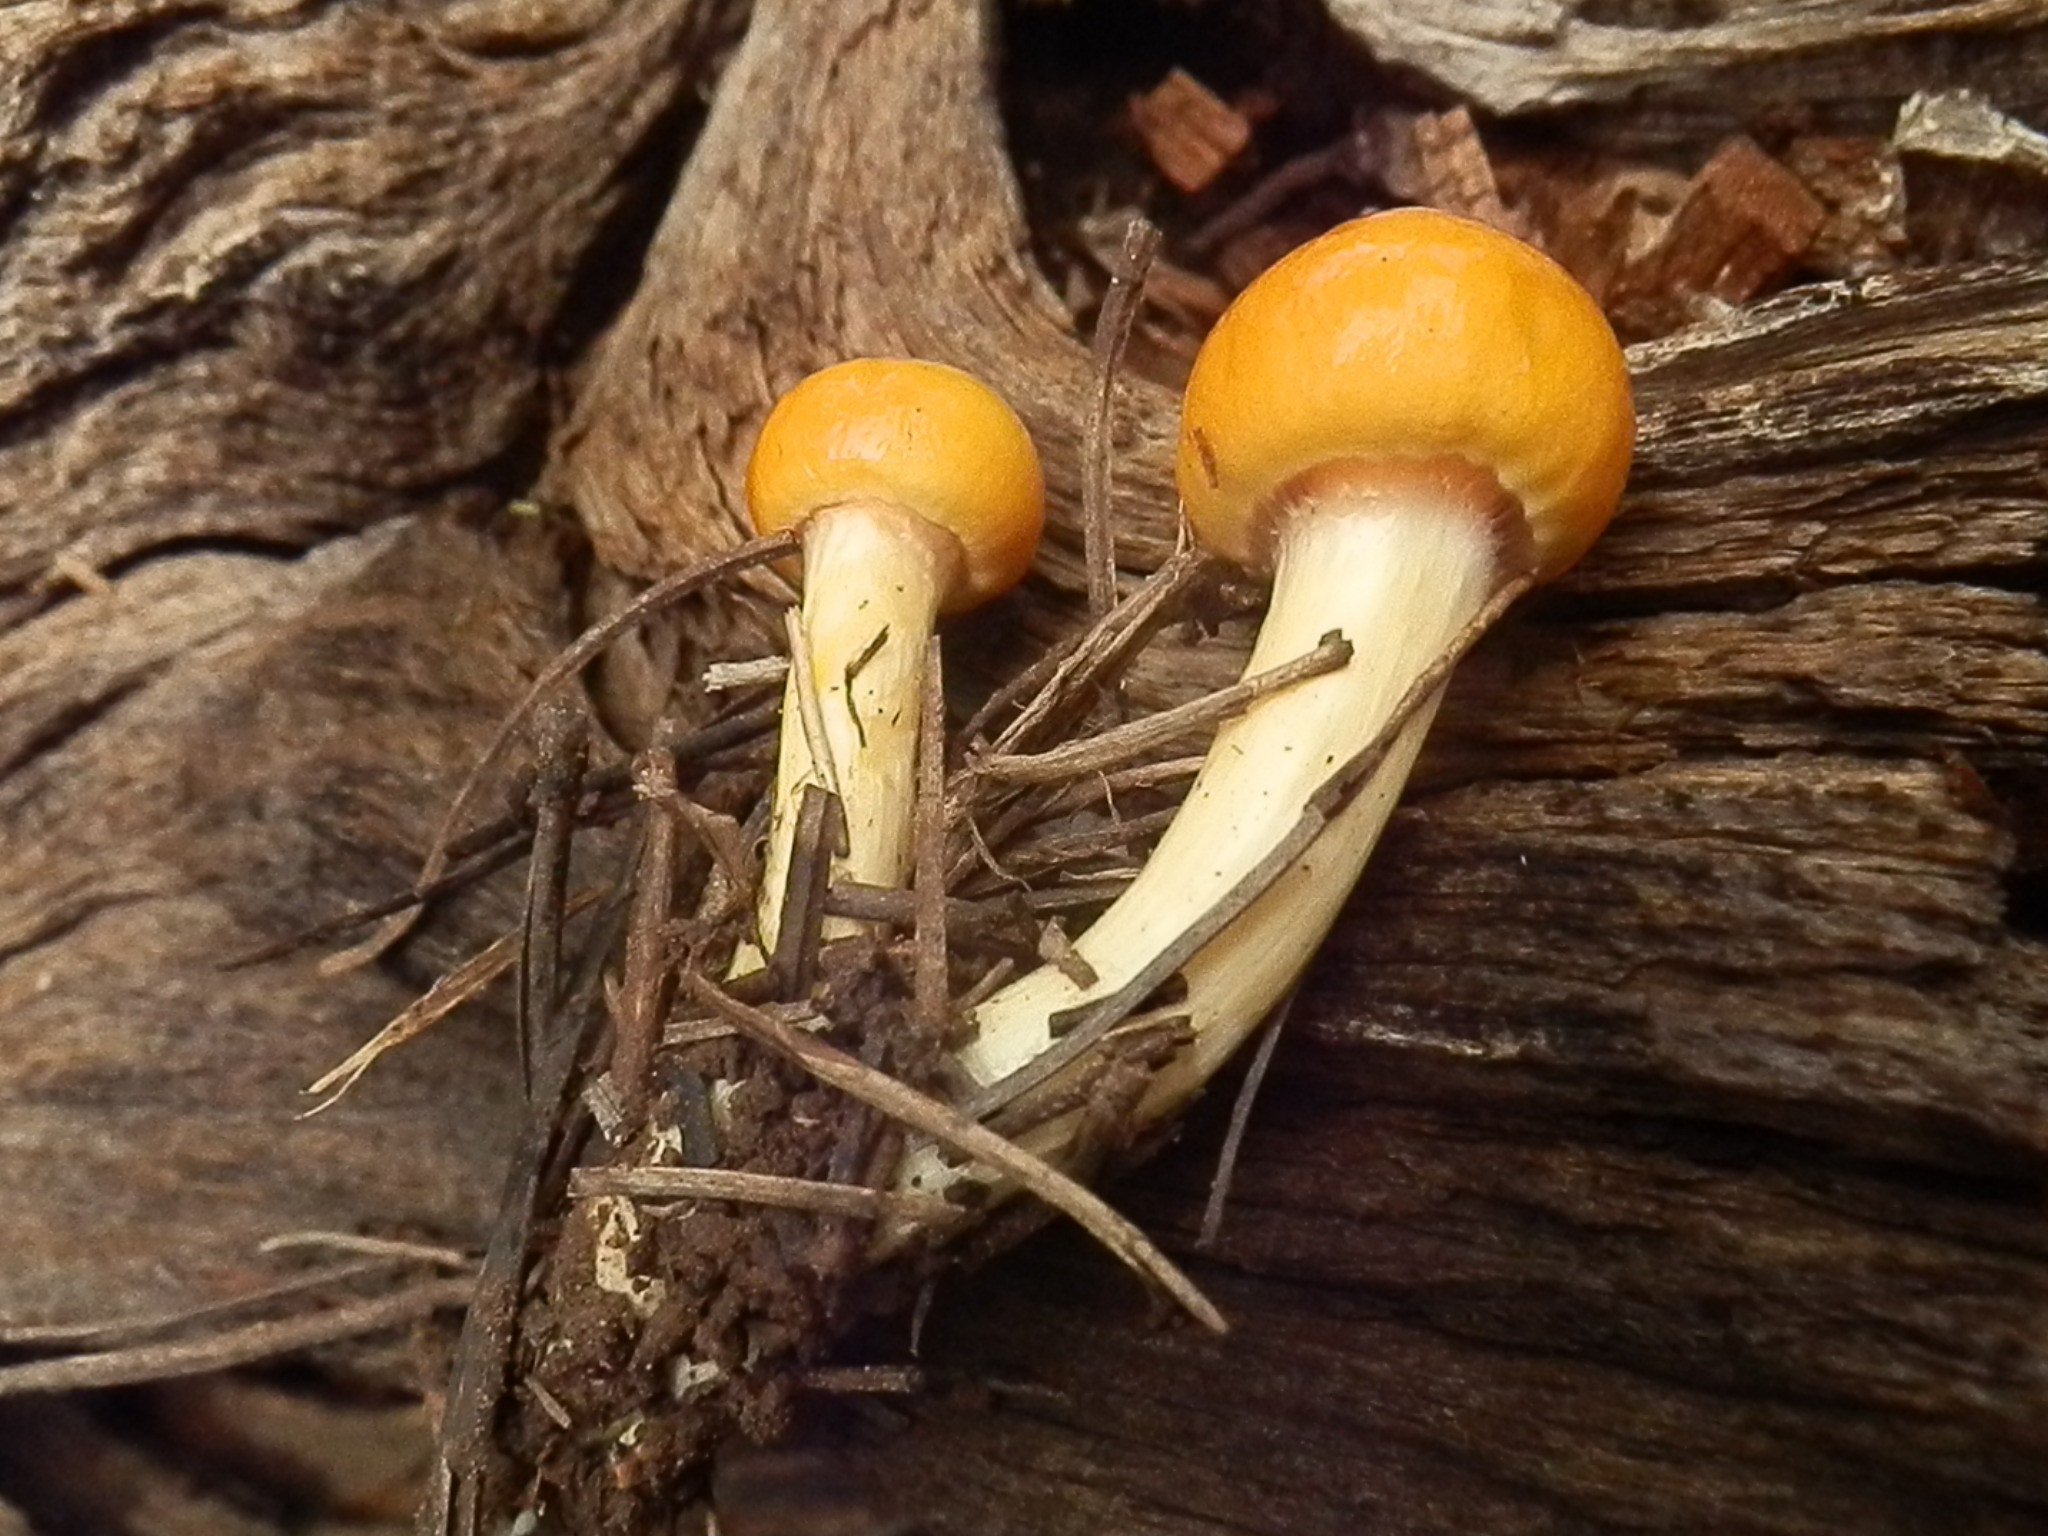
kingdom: Fungi
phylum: Basidiomycota
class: Agaricomycetes
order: Agaricales
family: Hygrophoraceae
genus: Hygrophorus
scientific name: Hygrophorus siccipes
